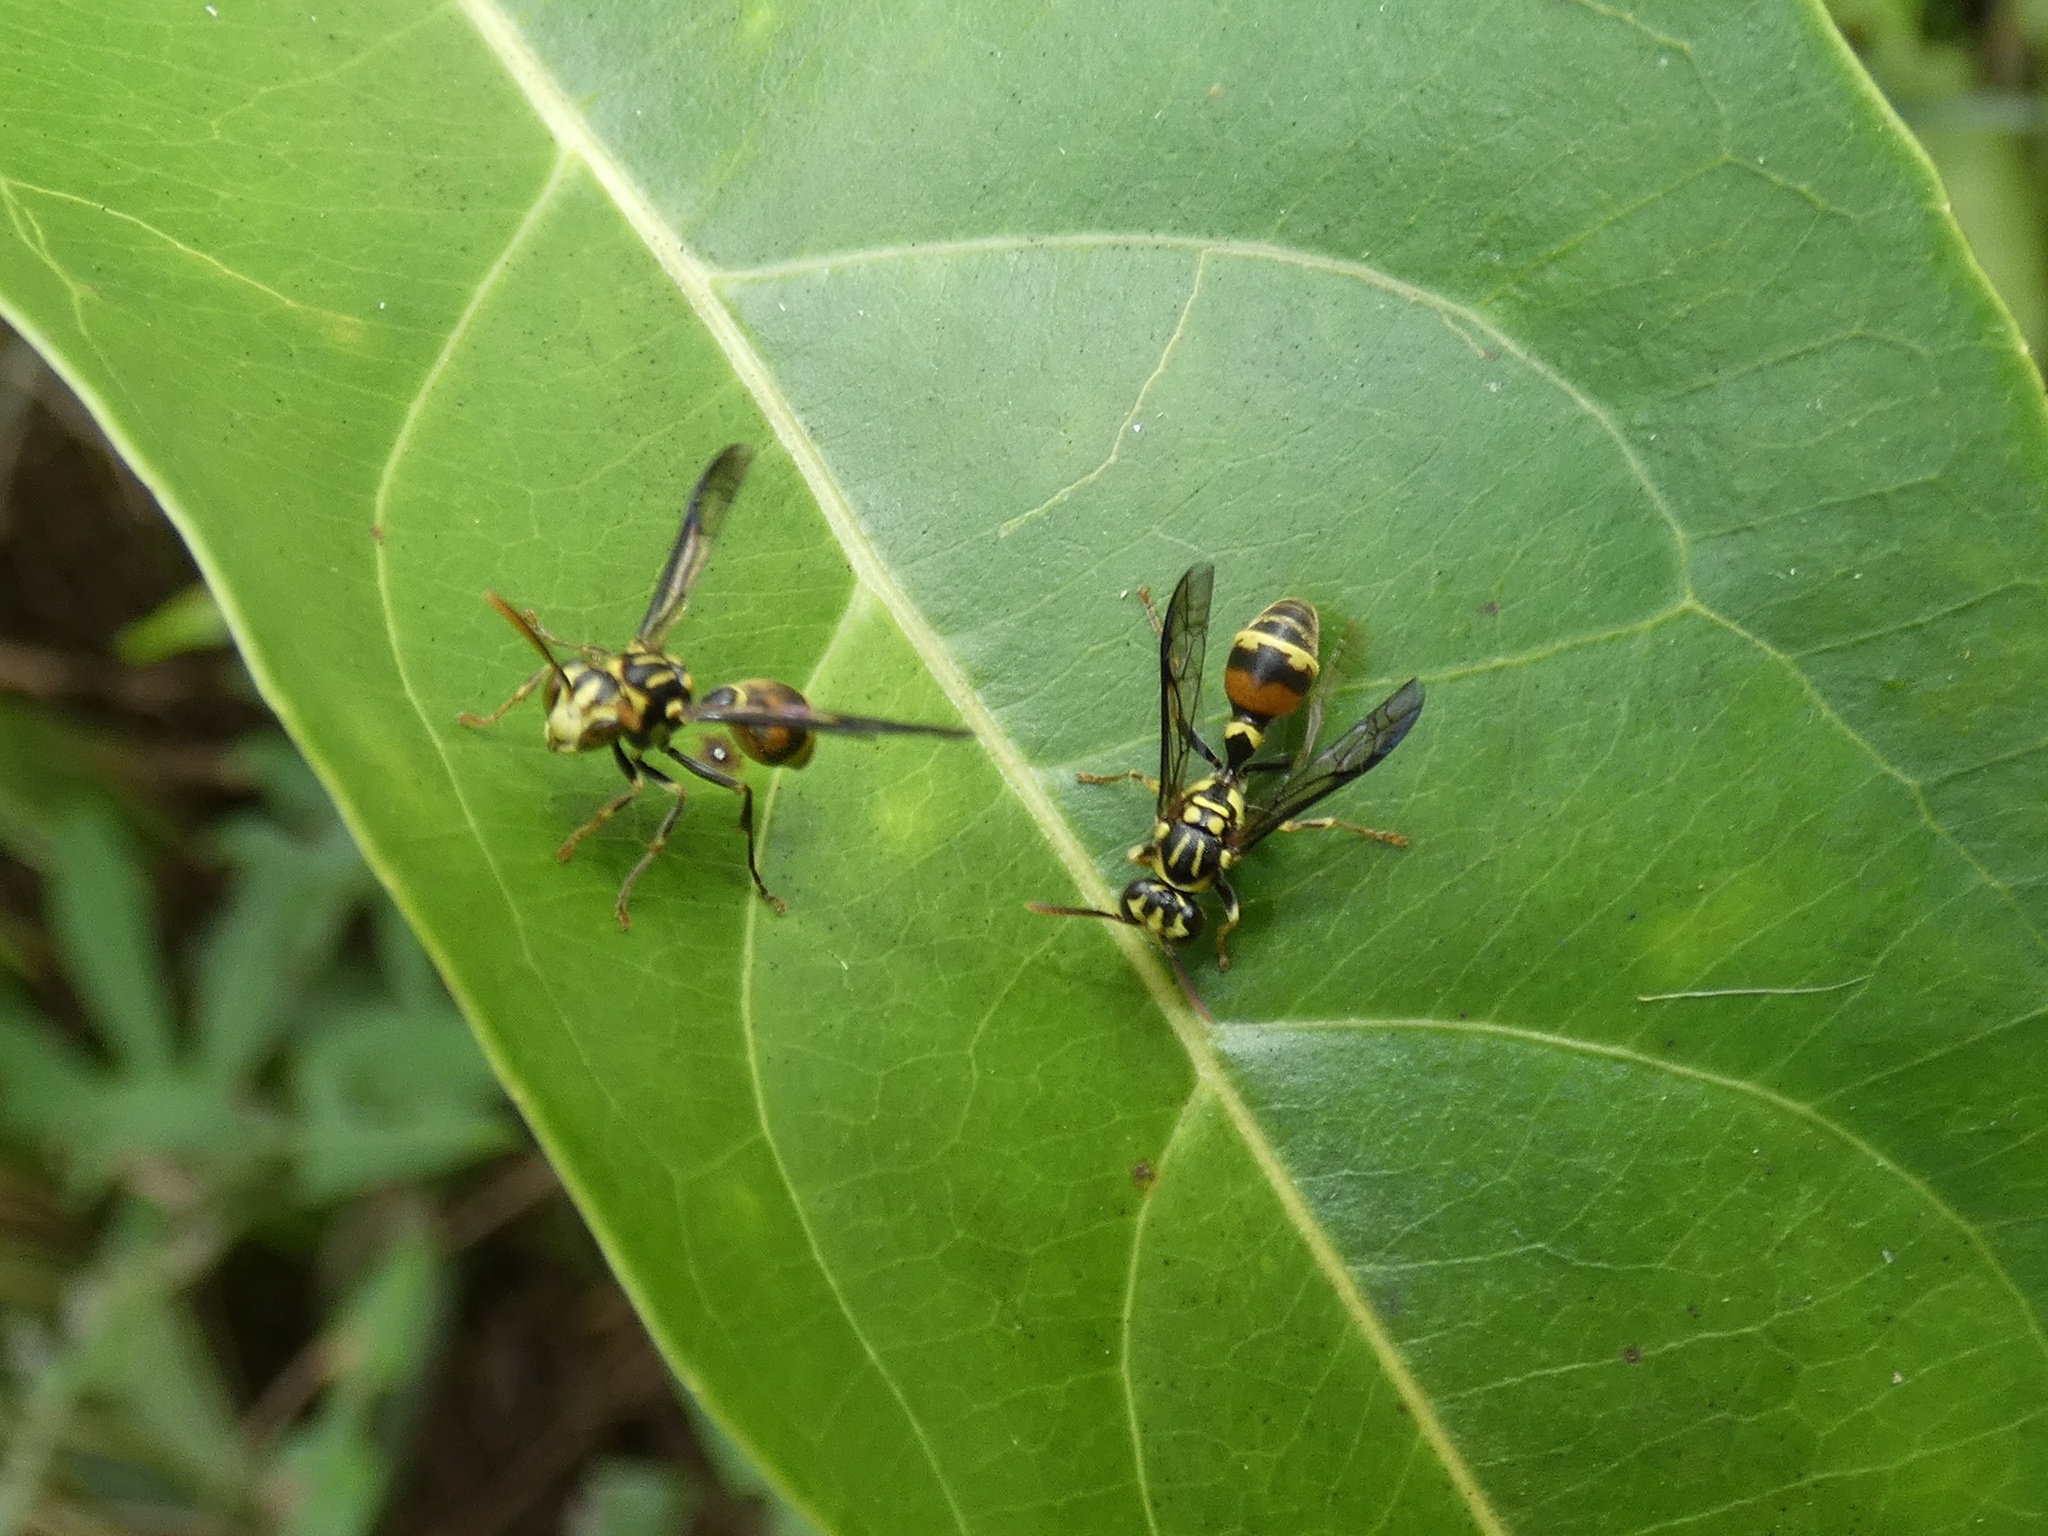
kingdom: Animalia
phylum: Arthropoda
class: Insecta
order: Hymenoptera
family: Vespidae
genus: Ropalidia
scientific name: Ropalidia flavobrunnea
